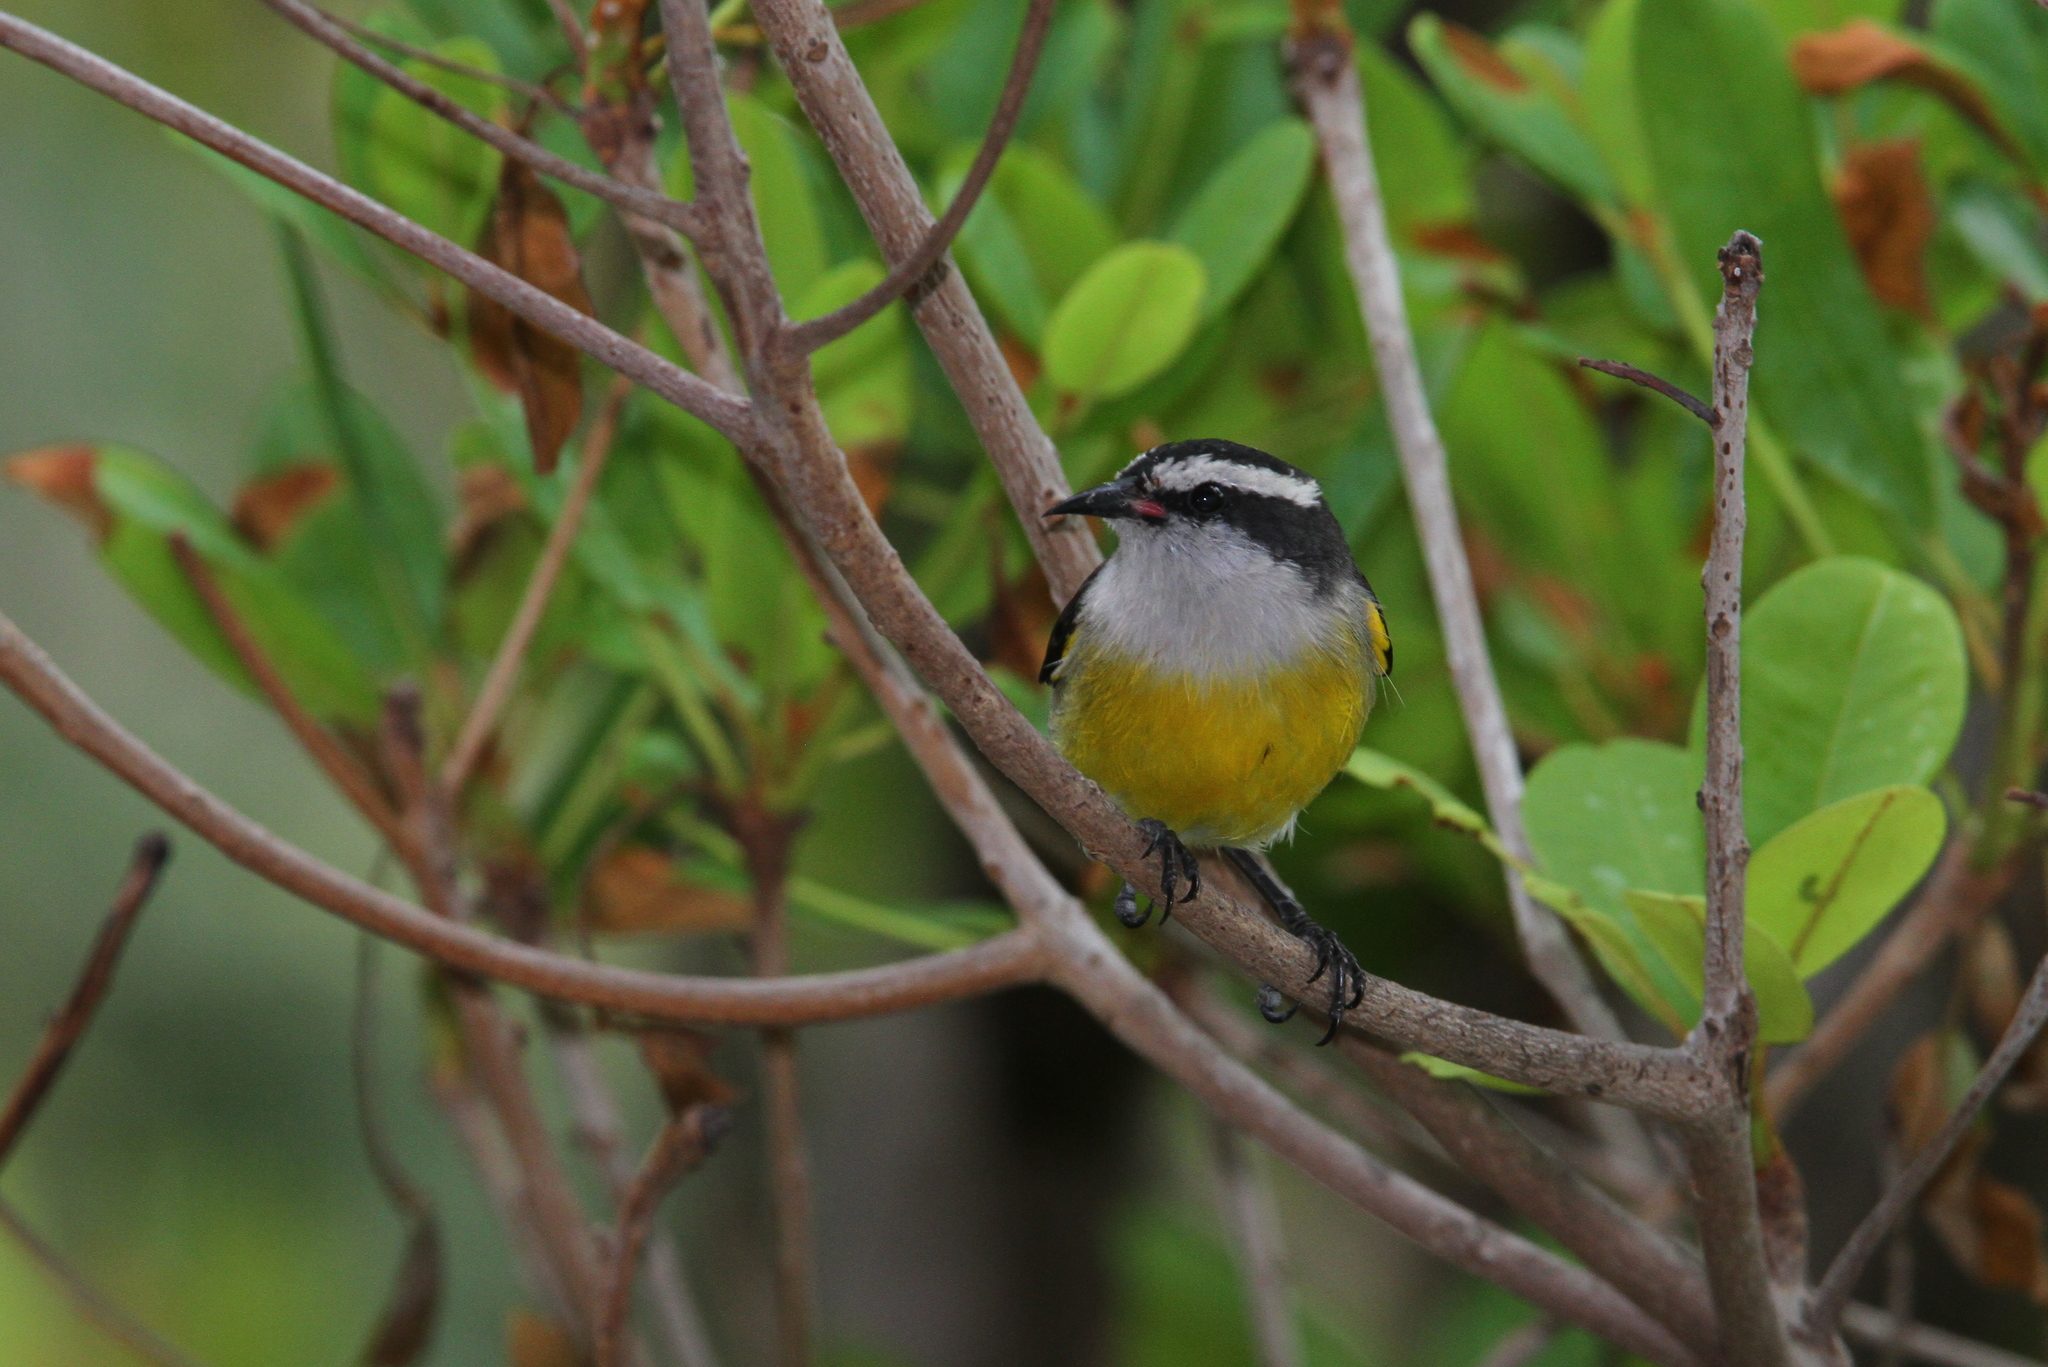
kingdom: Animalia
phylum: Chordata
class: Aves
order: Passeriformes
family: Thraupidae
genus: Coereba
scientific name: Coereba flaveola
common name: Bananaquit
